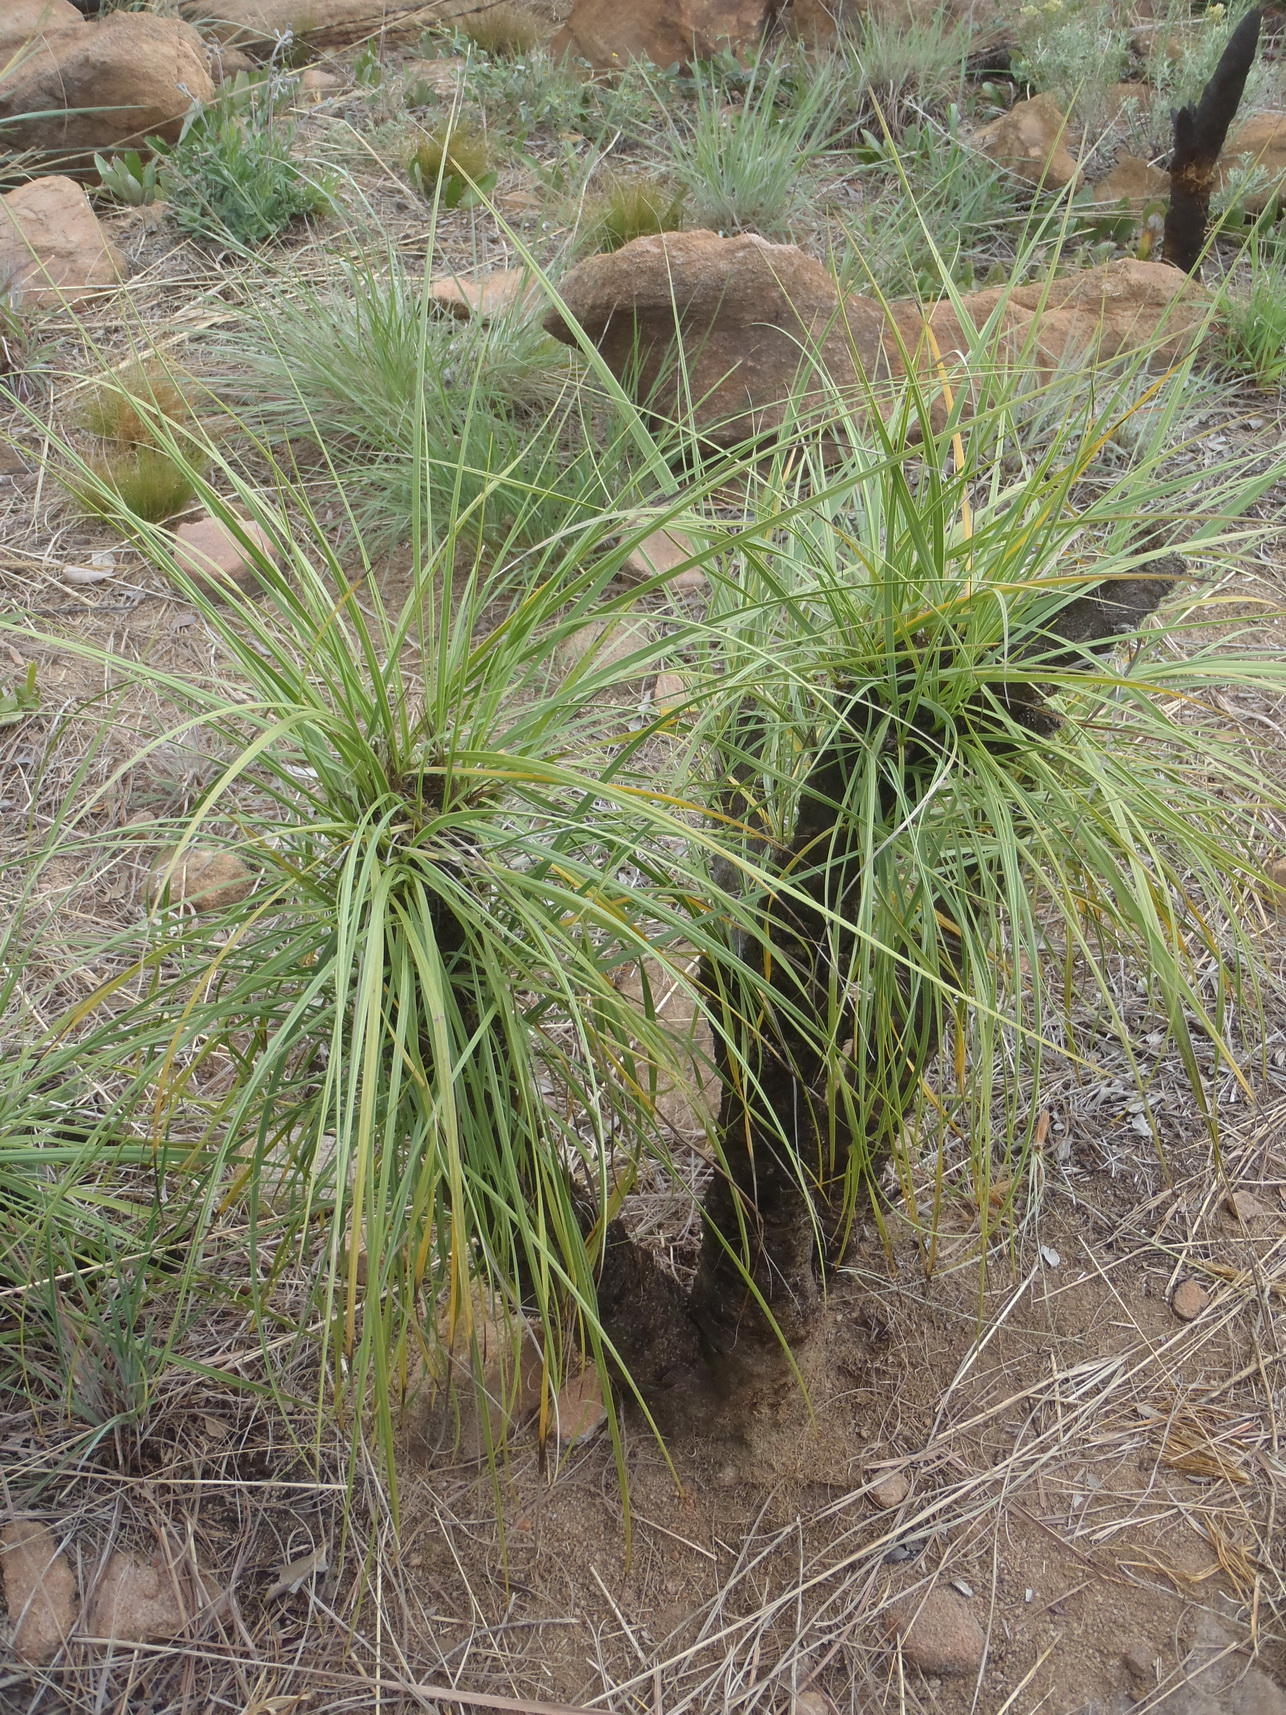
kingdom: Plantae
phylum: Tracheophyta
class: Liliopsida
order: Pandanales
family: Velloziaceae
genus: Xerophyta
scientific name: Xerophyta retinervis
